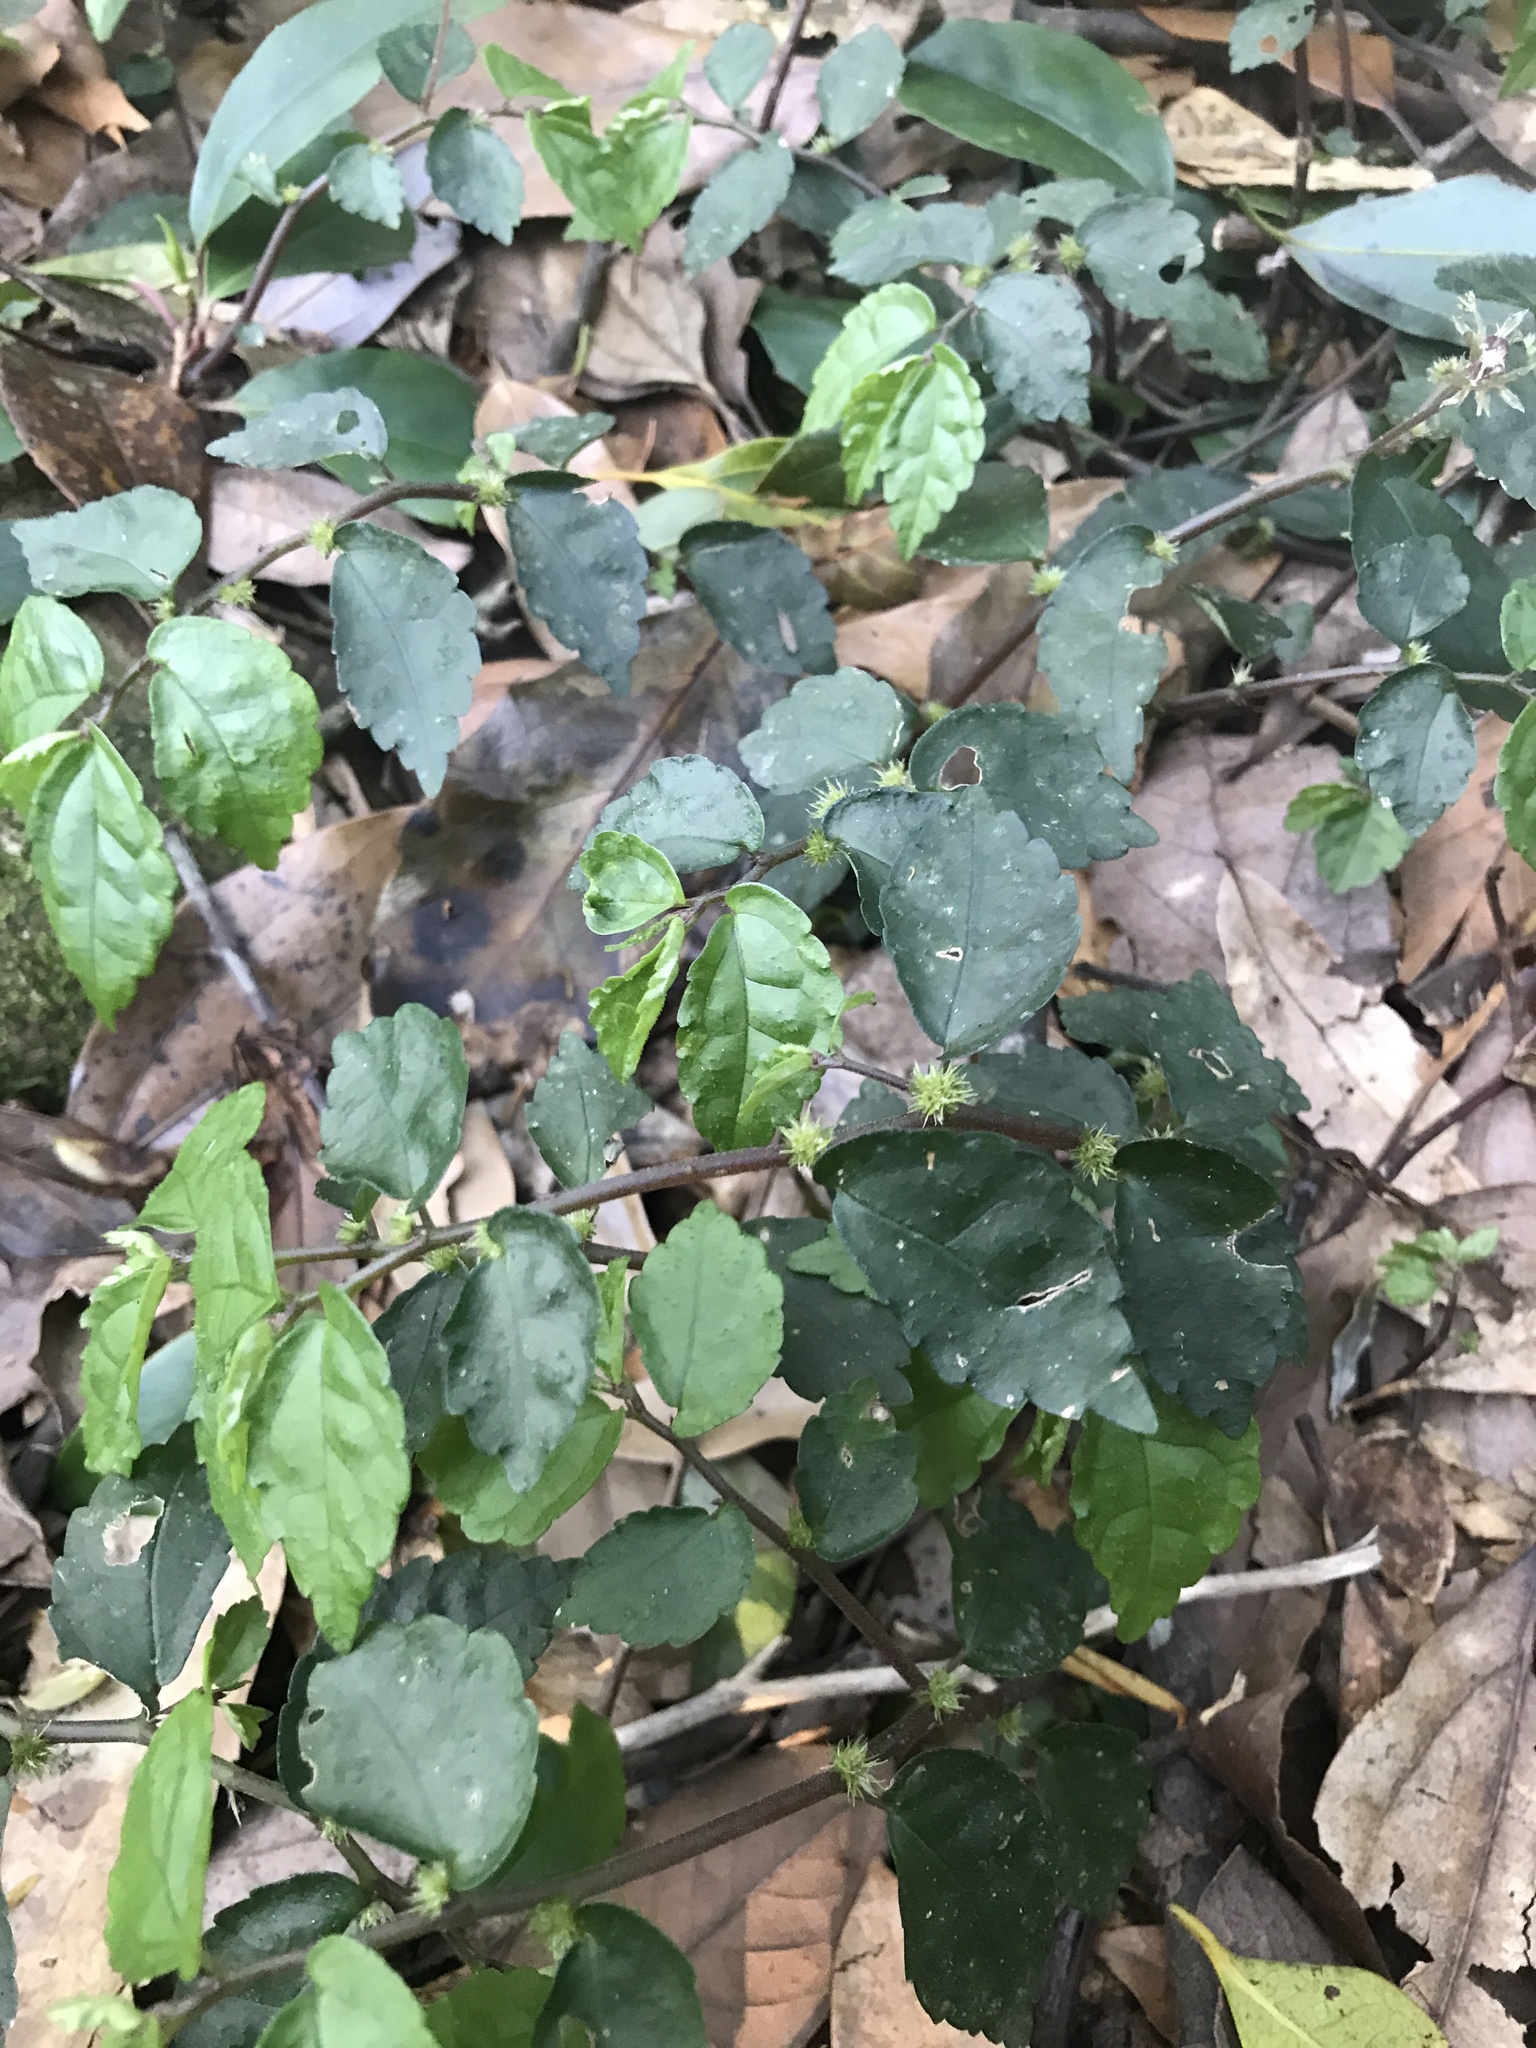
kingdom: Plantae
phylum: Tracheophyta
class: Magnoliopsida
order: Rosales
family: Urticaceae
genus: Elatostema
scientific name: Elatostema radicans
